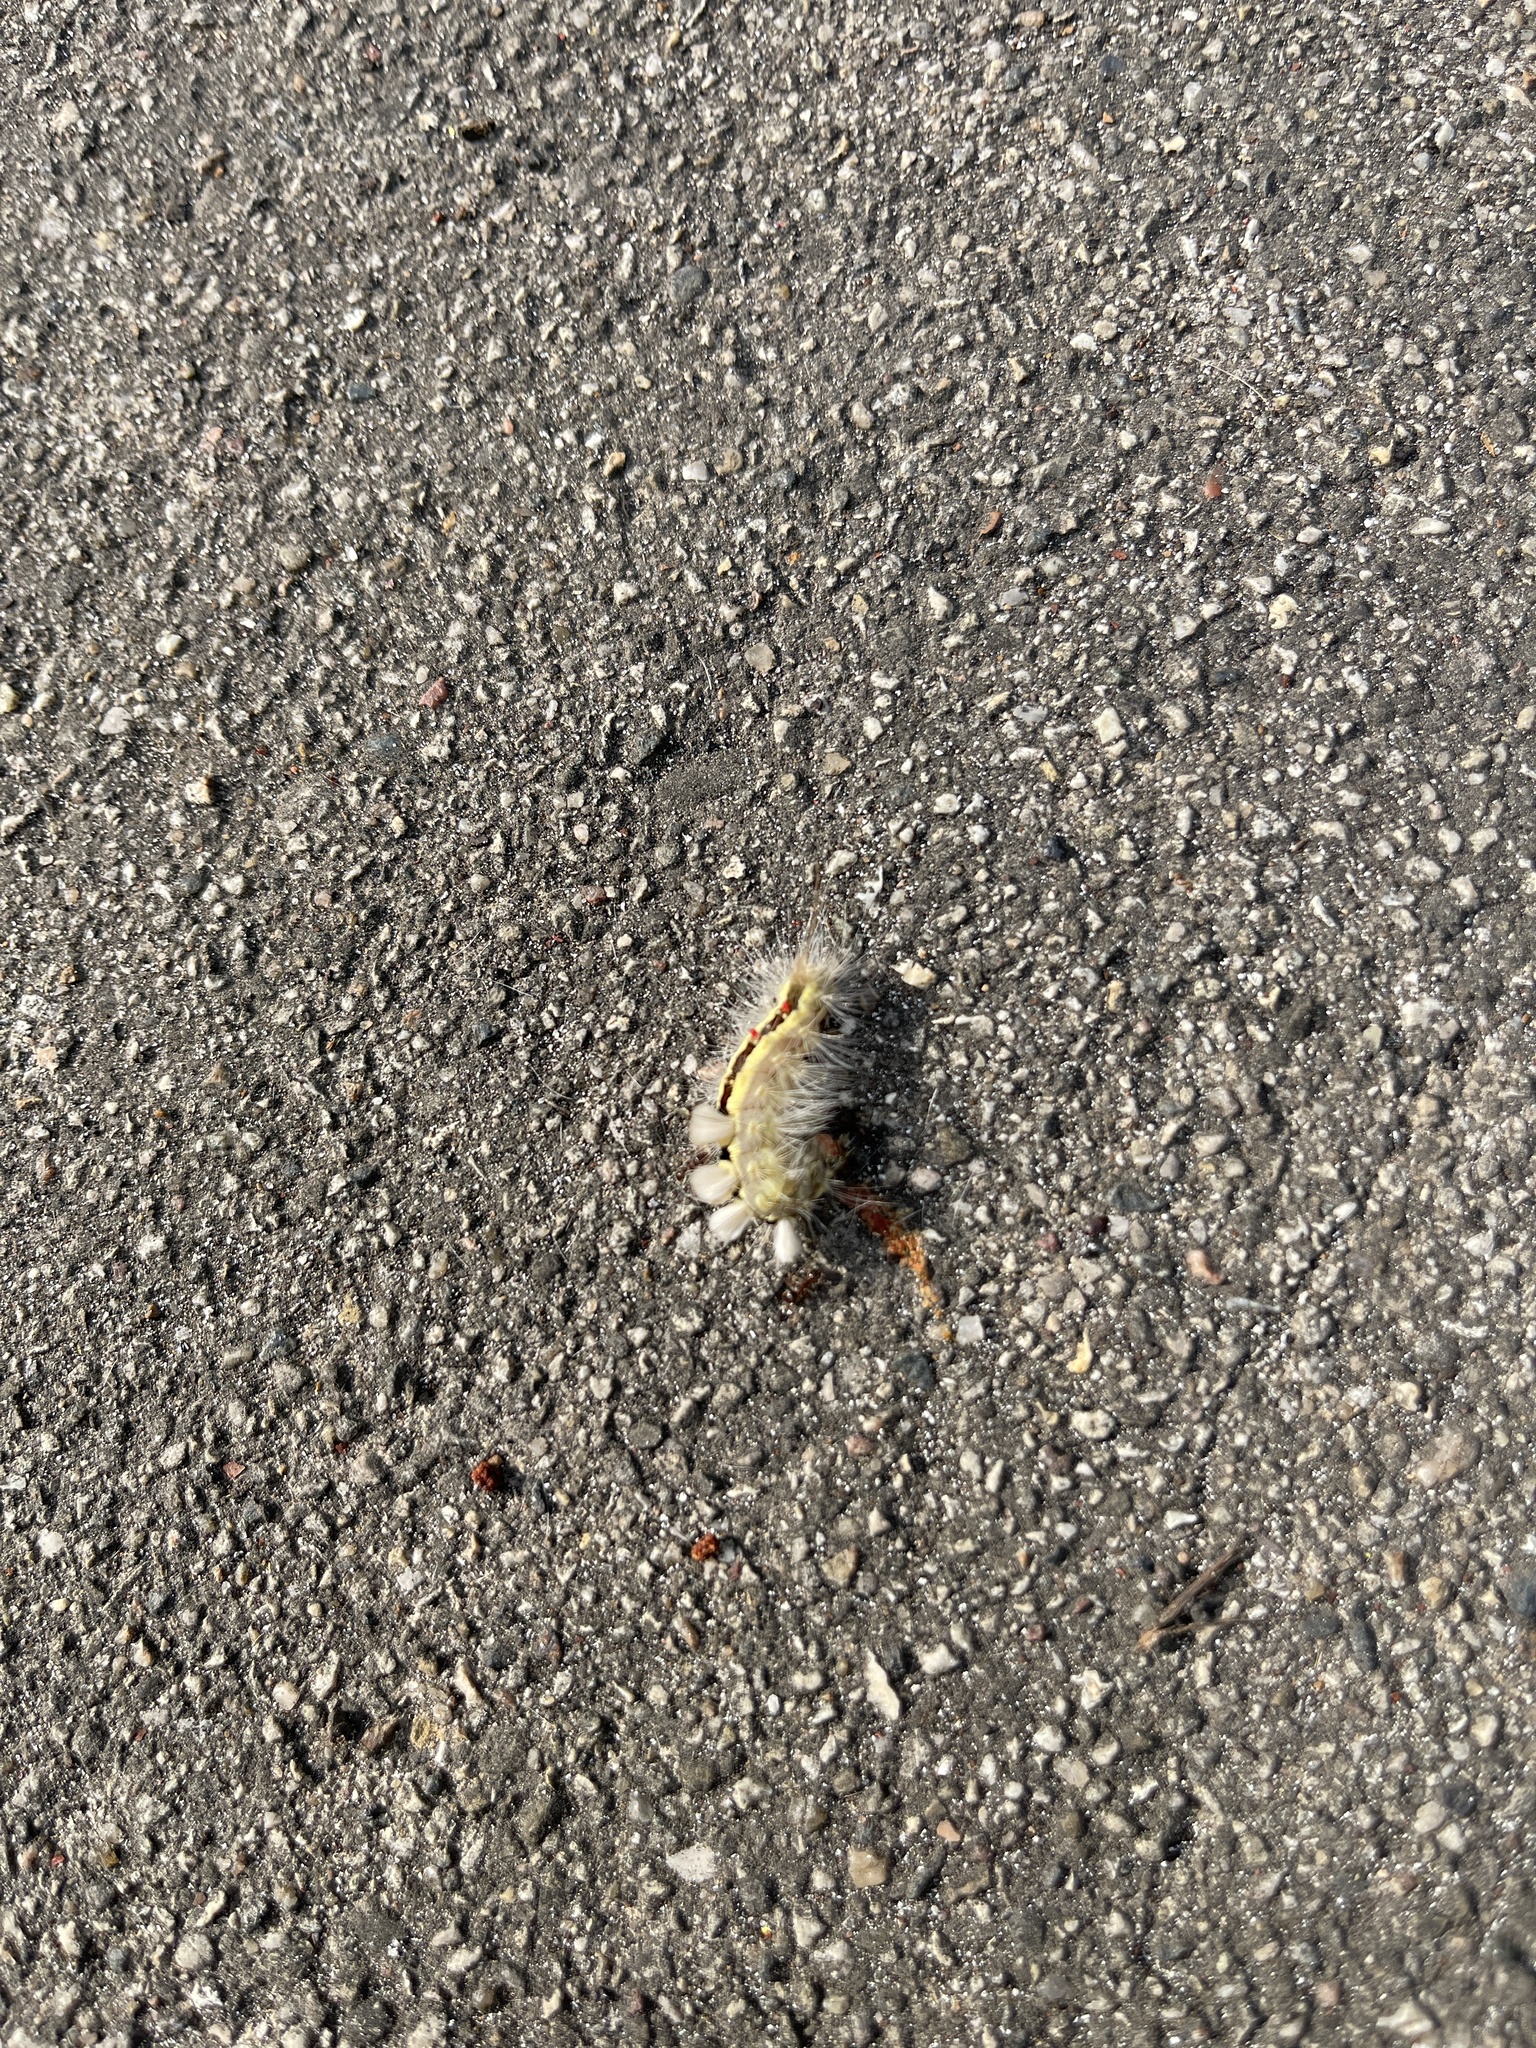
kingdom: Animalia
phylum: Arthropoda
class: Insecta
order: Lepidoptera
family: Erebidae
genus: Orgyia
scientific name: Orgyia leucostigma
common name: White-marked tussock moth
